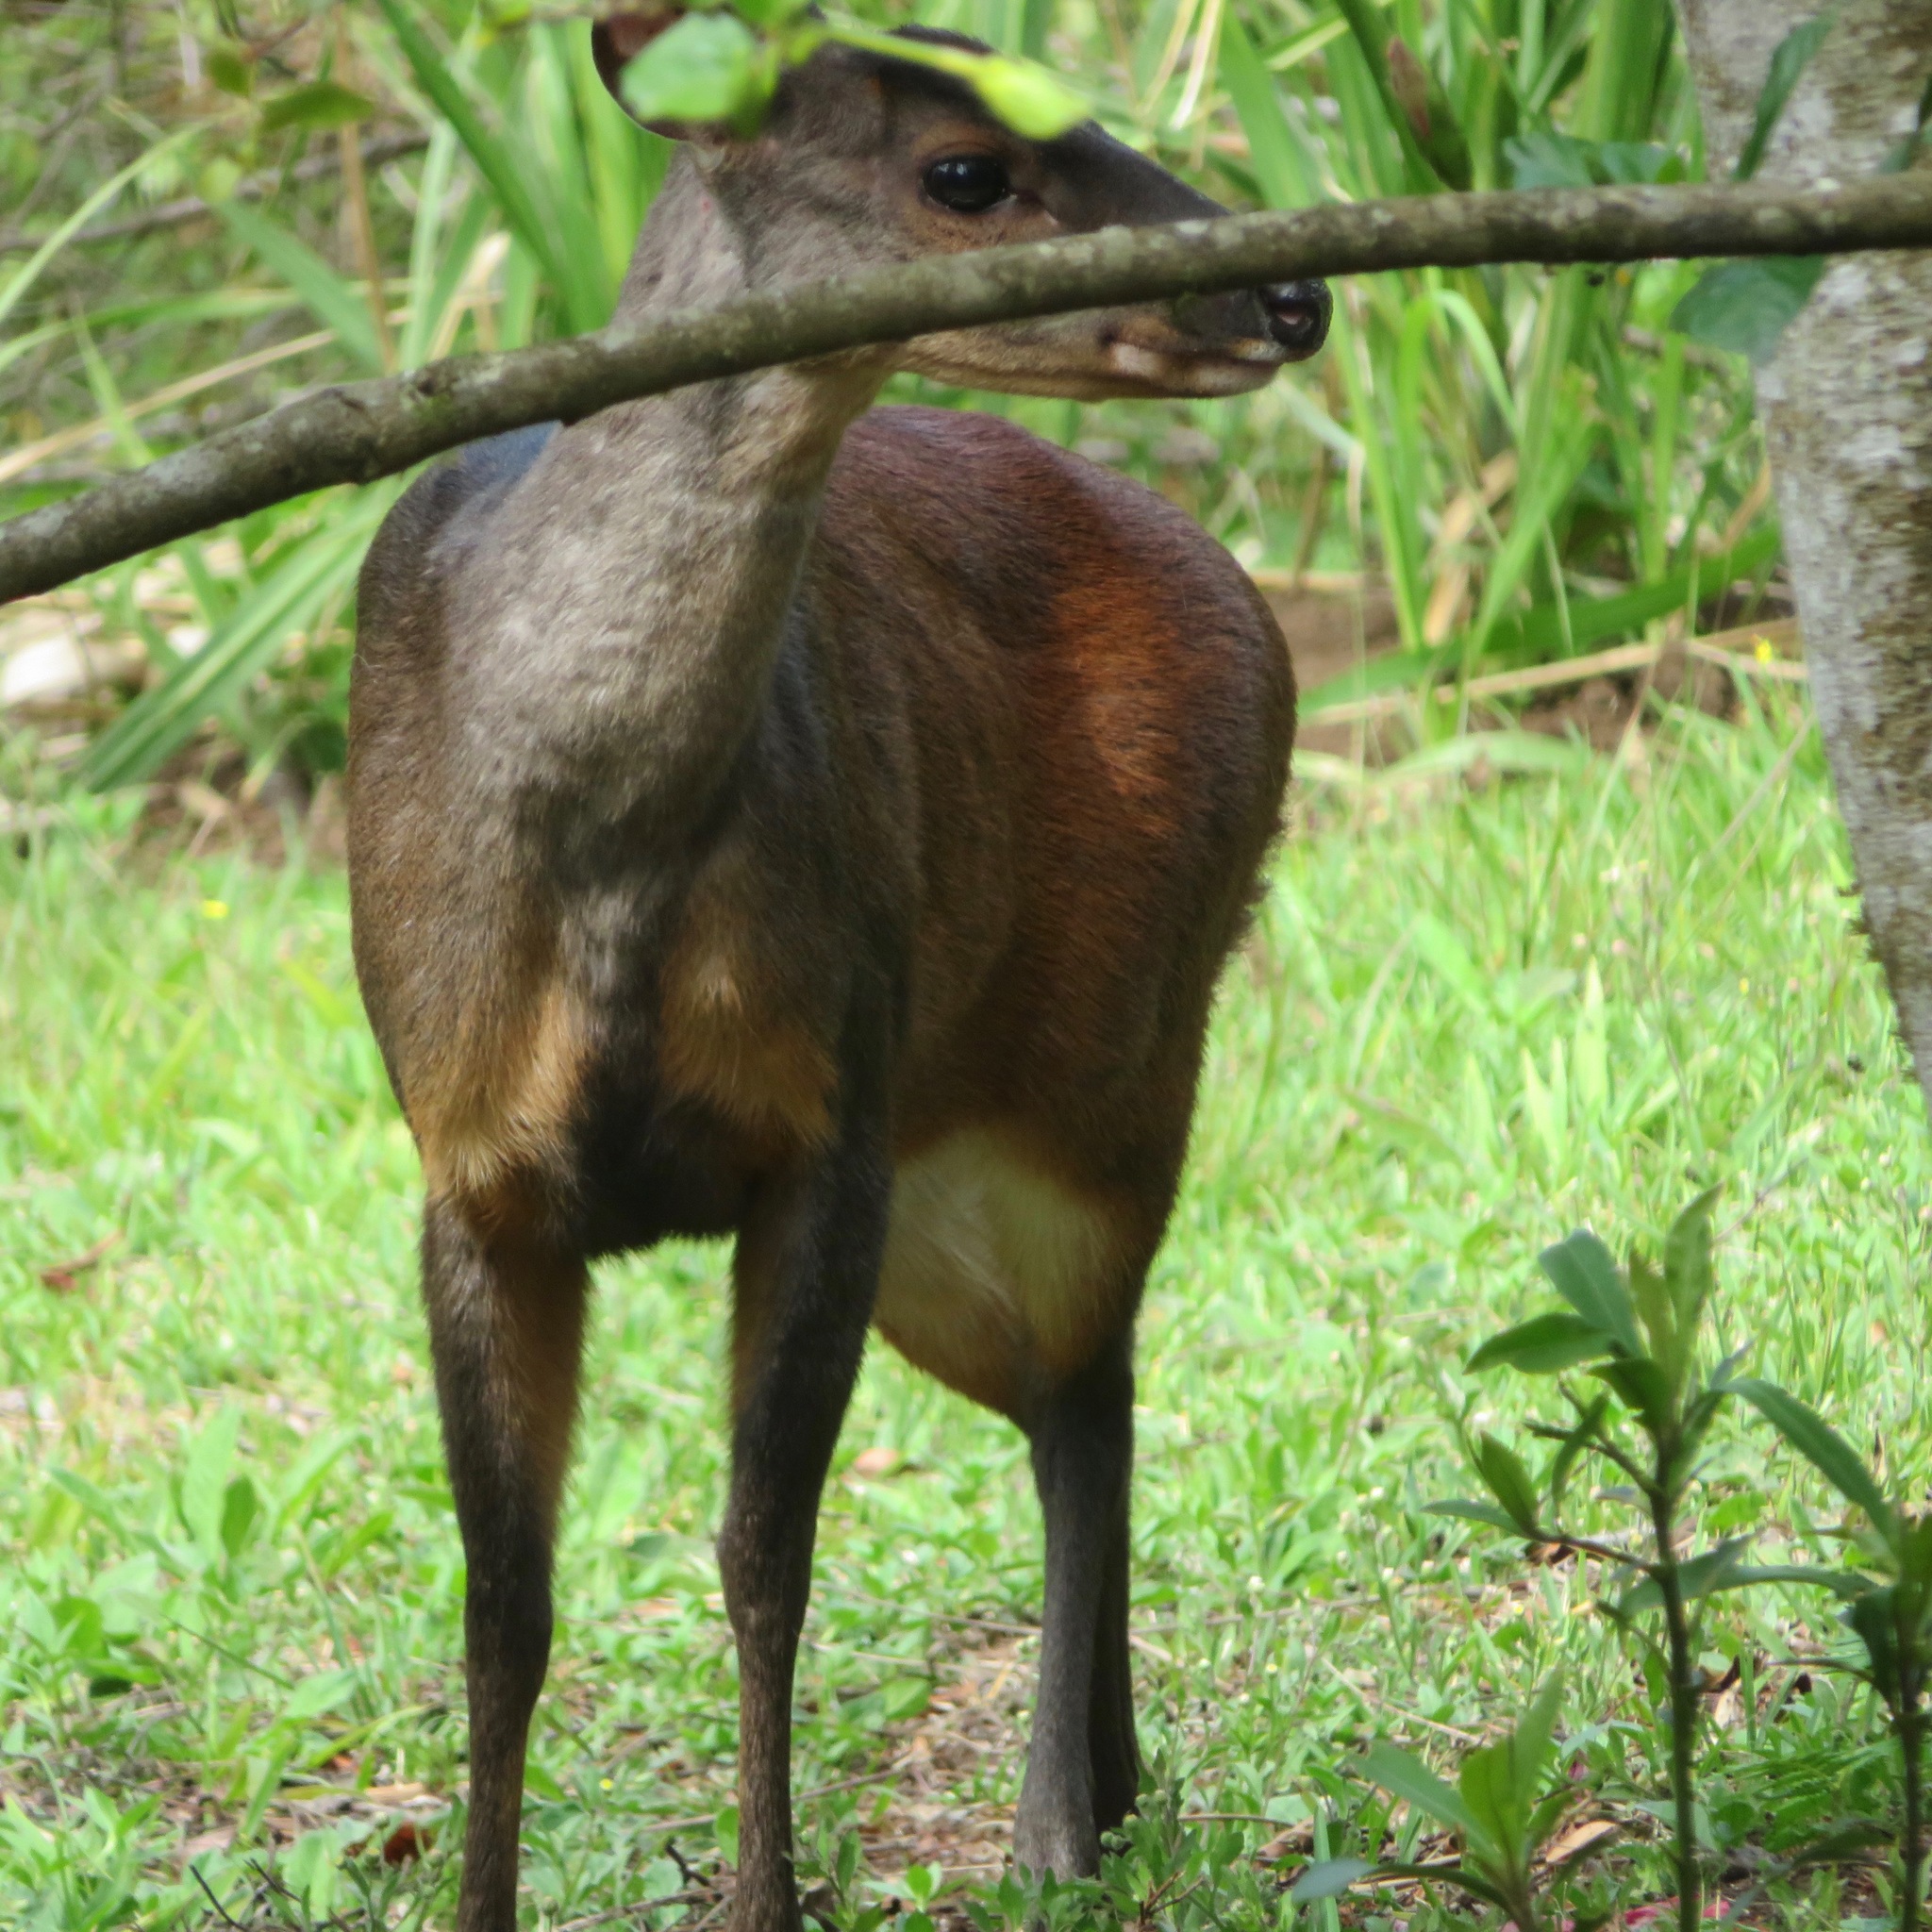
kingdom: Animalia
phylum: Chordata
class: Mammalia
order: Artiodactyla
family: Cervidae
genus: Mazama
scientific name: Mazama temama
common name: Central american red brocket
